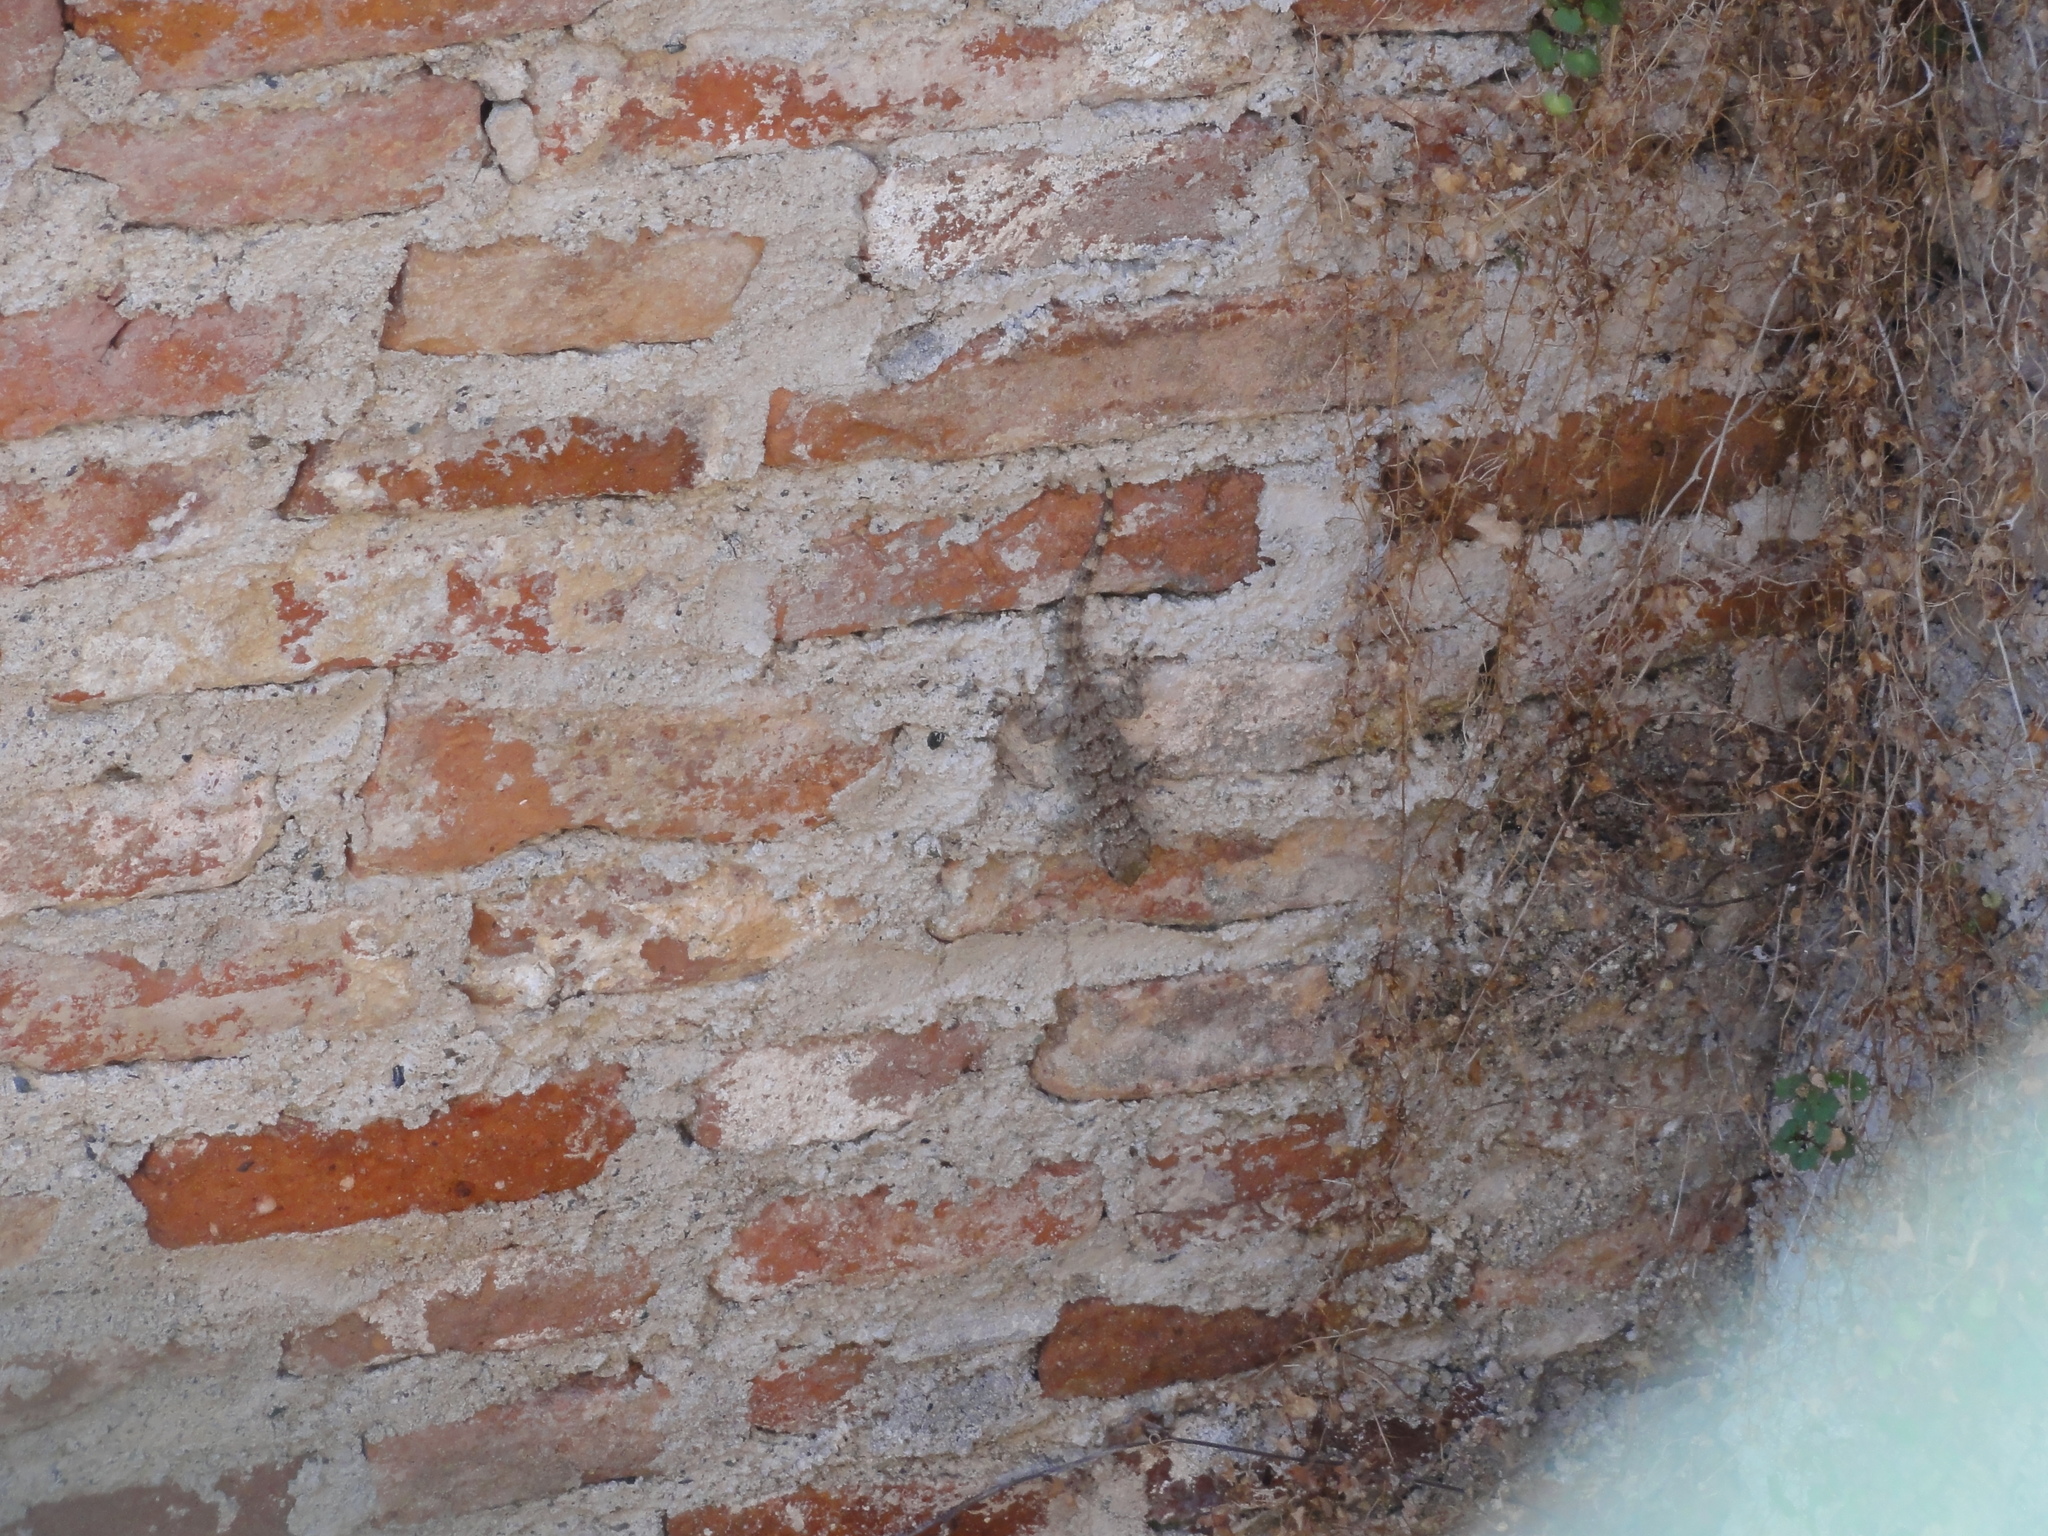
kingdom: Animalia
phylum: Chordata
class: Squamata
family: Phyllodactylidae
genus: Tarentola
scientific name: Tarentola mauritanica
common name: Moorish gecko
